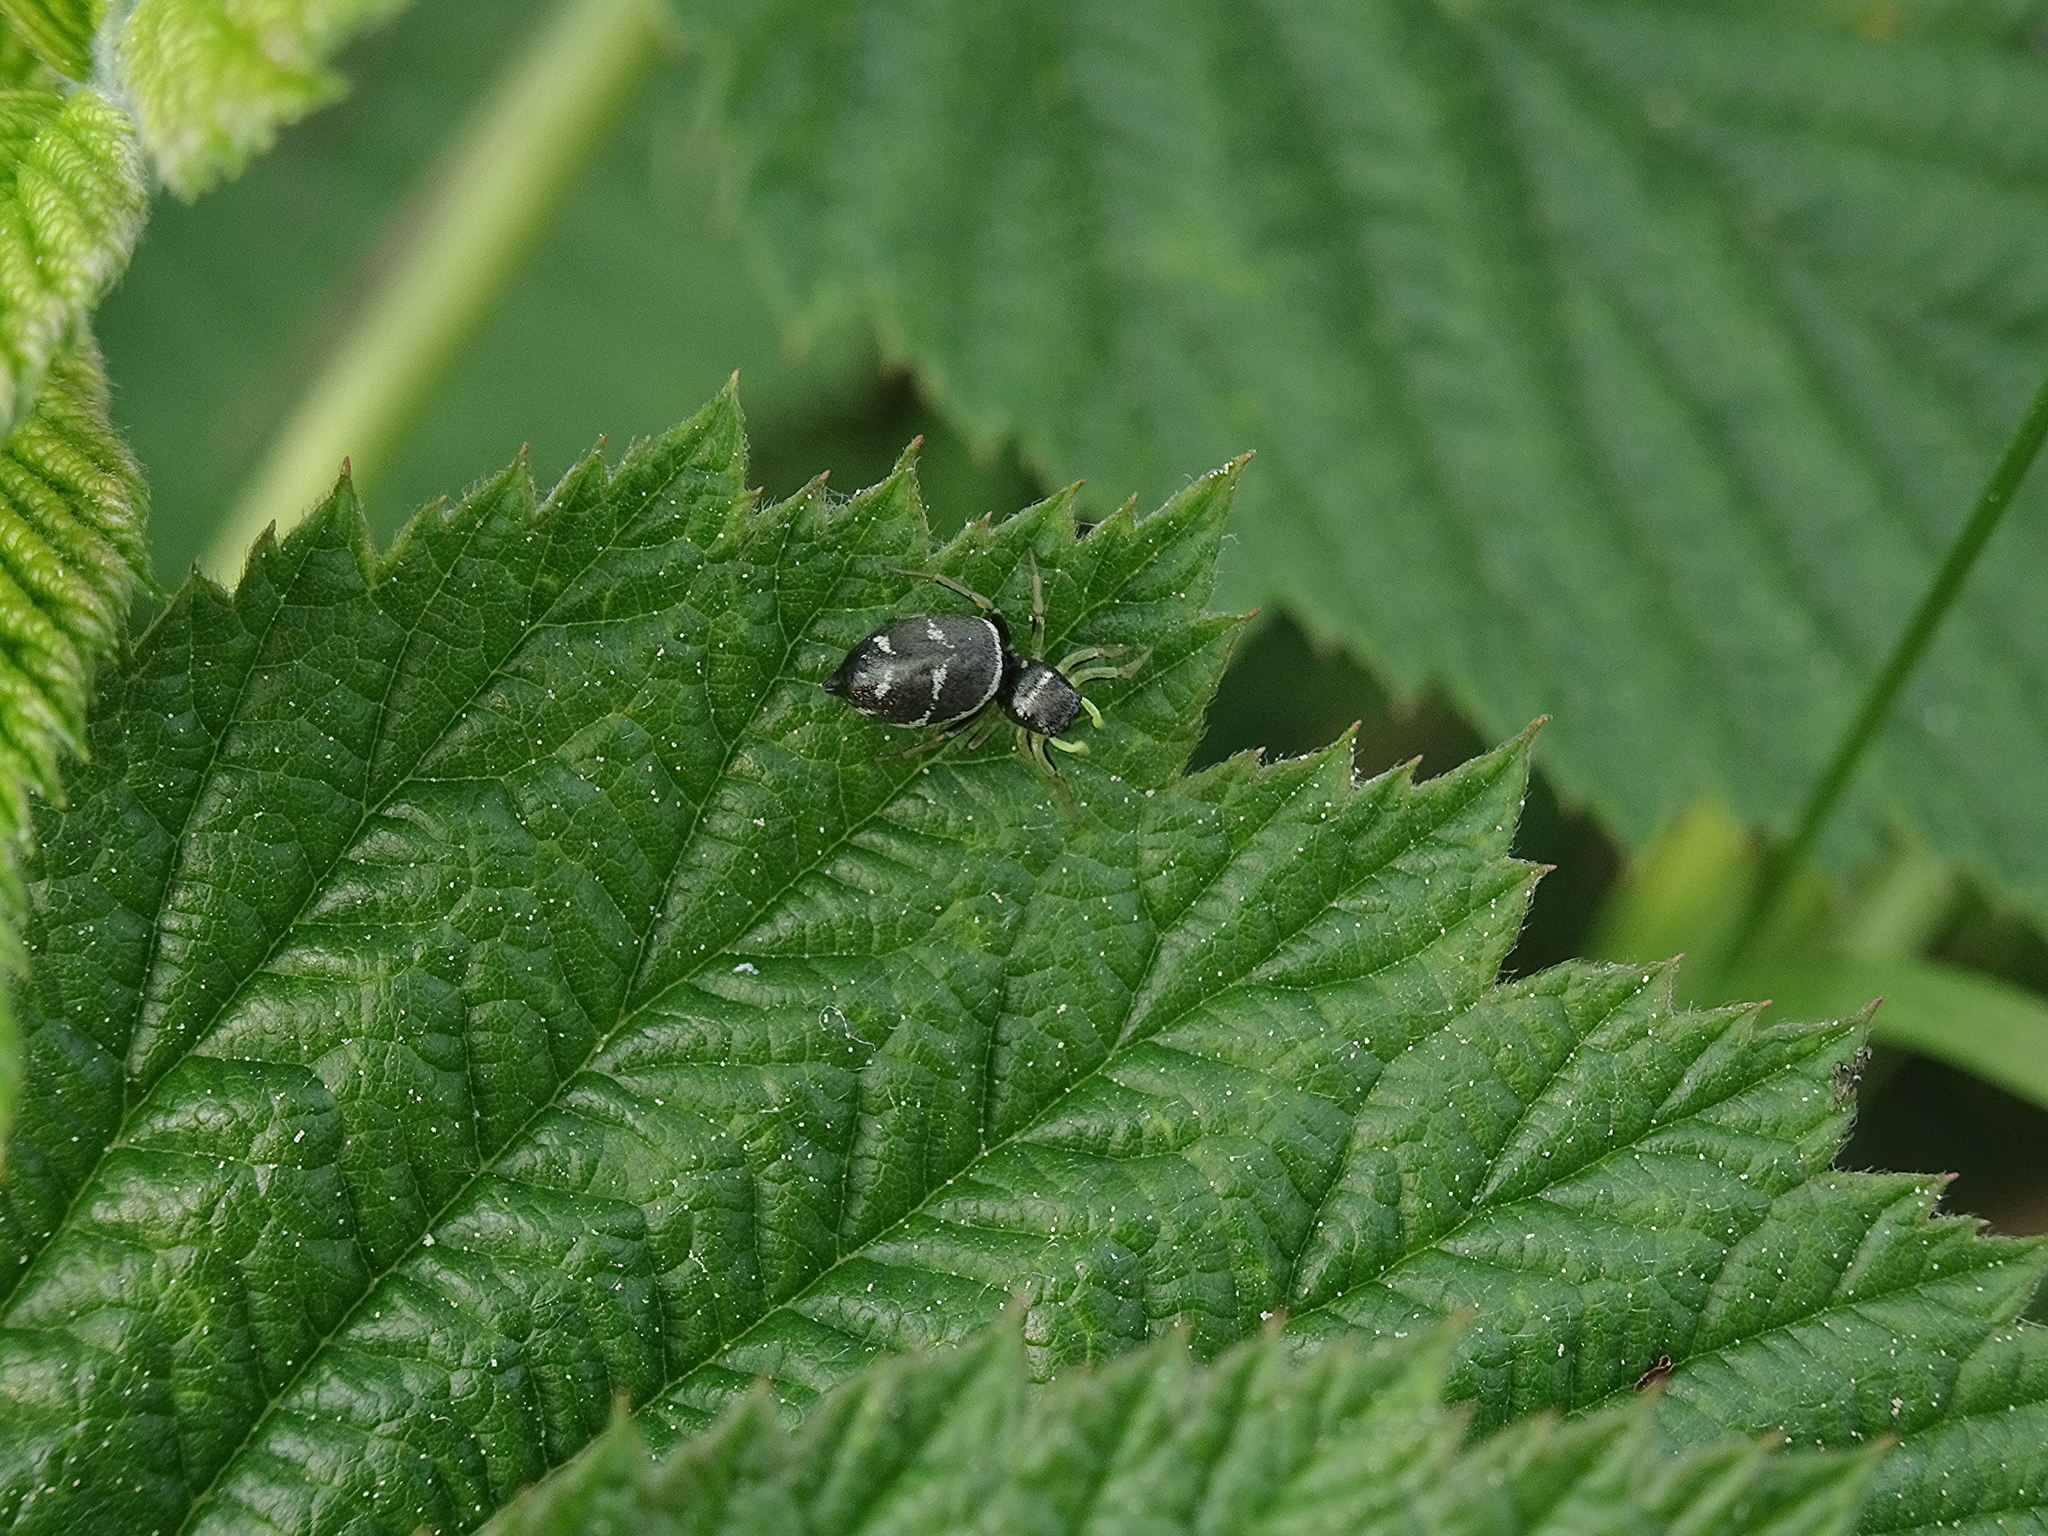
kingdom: Animalia
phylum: Arthropoda
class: Arachnida
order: Araneae
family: Salticidae
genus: Heliophanus
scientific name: Heliophanus cupreus
